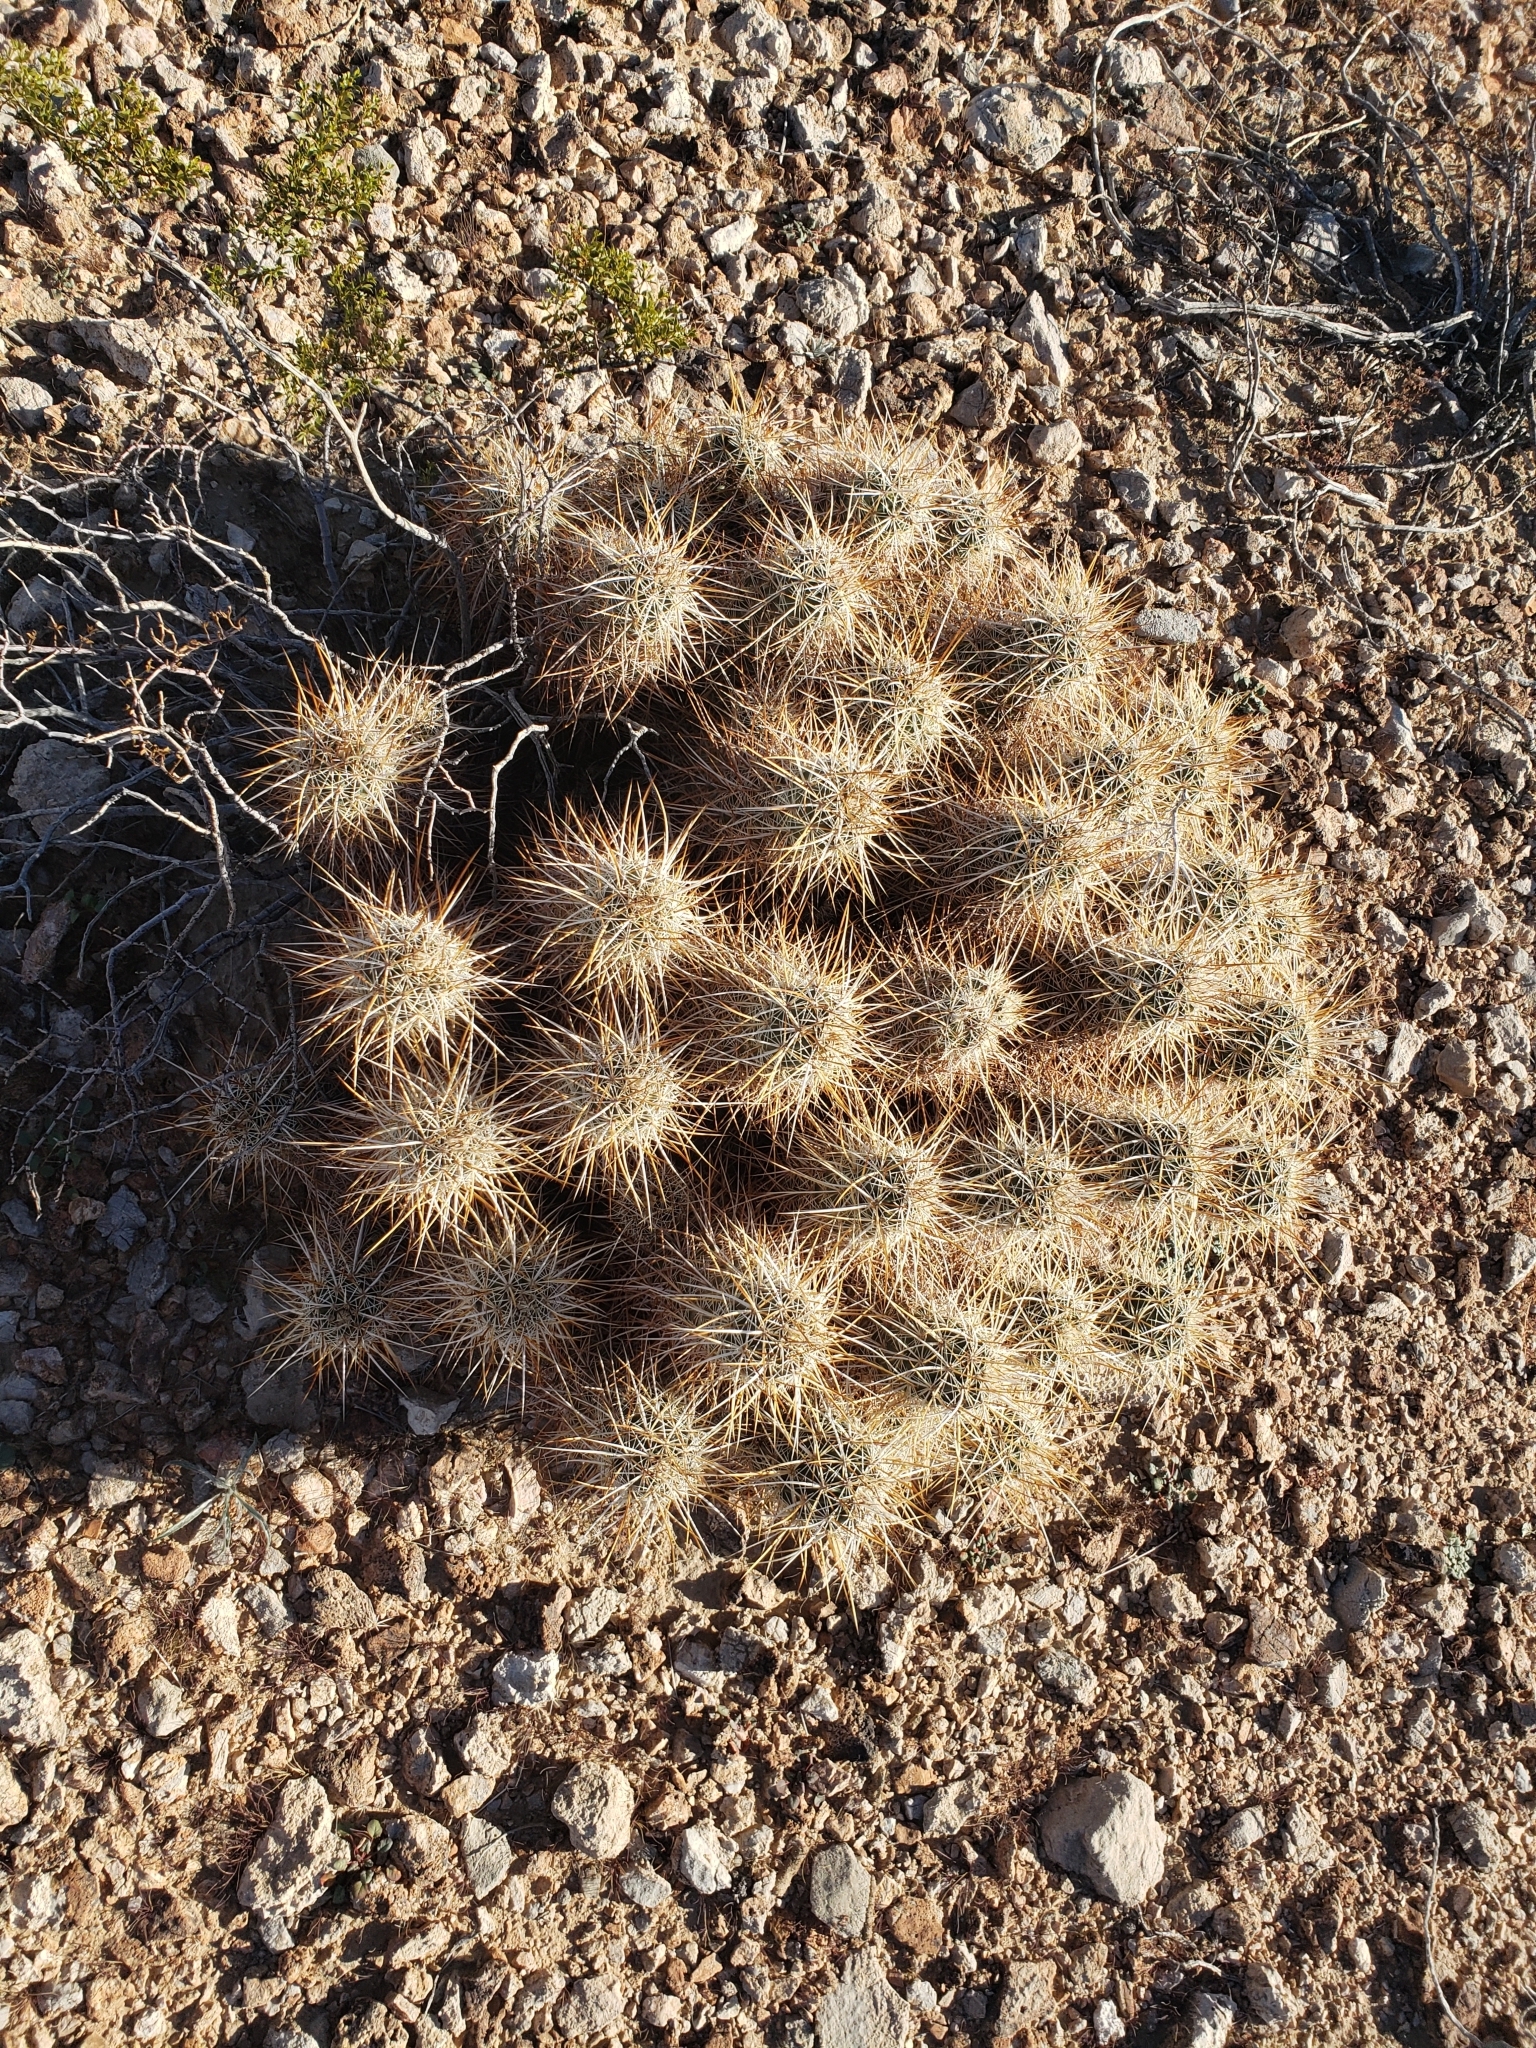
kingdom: Plantae
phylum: Tracheophyta
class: Magnoliopsida
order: Caryophyllales
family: Cactaceae
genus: Echinocereus
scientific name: Echinocereus engelmannii
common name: Engelmann's hedgehog cactus
